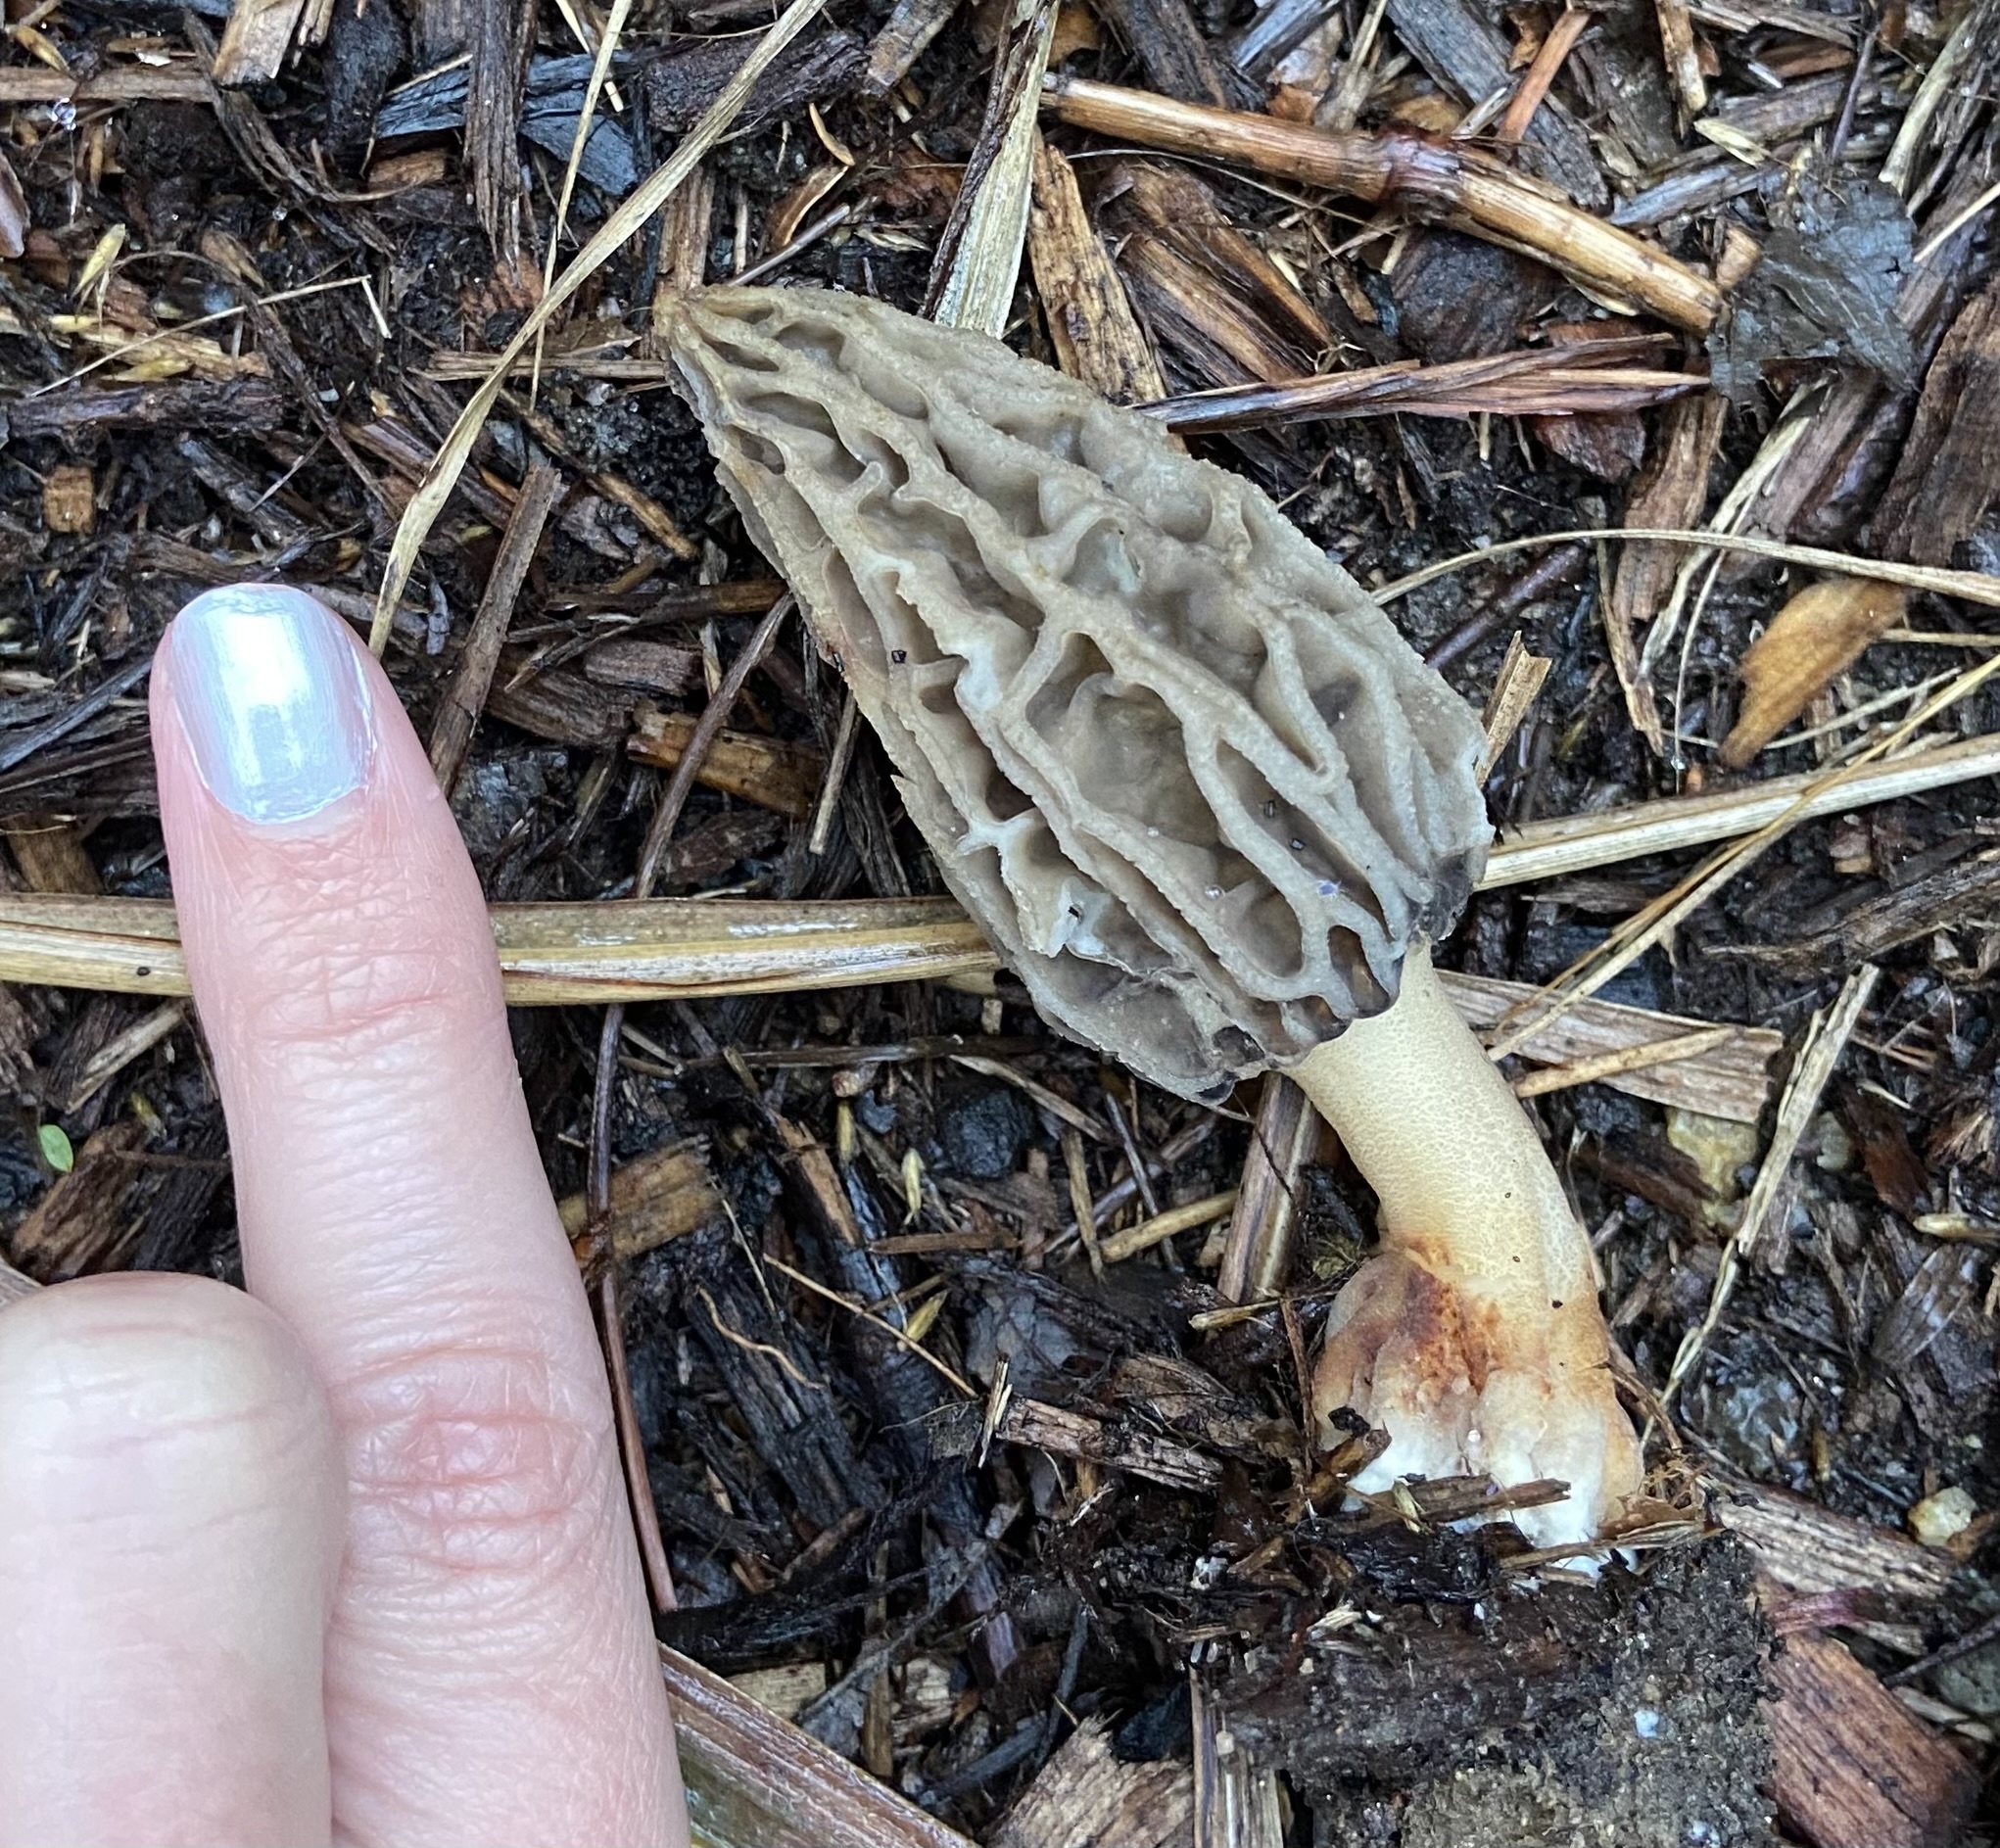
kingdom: Fungi
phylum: Ascomycota
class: Pezizomycetes
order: Pezizales
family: Morchellaceae
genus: Morchella
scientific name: Morchella rufobrunnea
